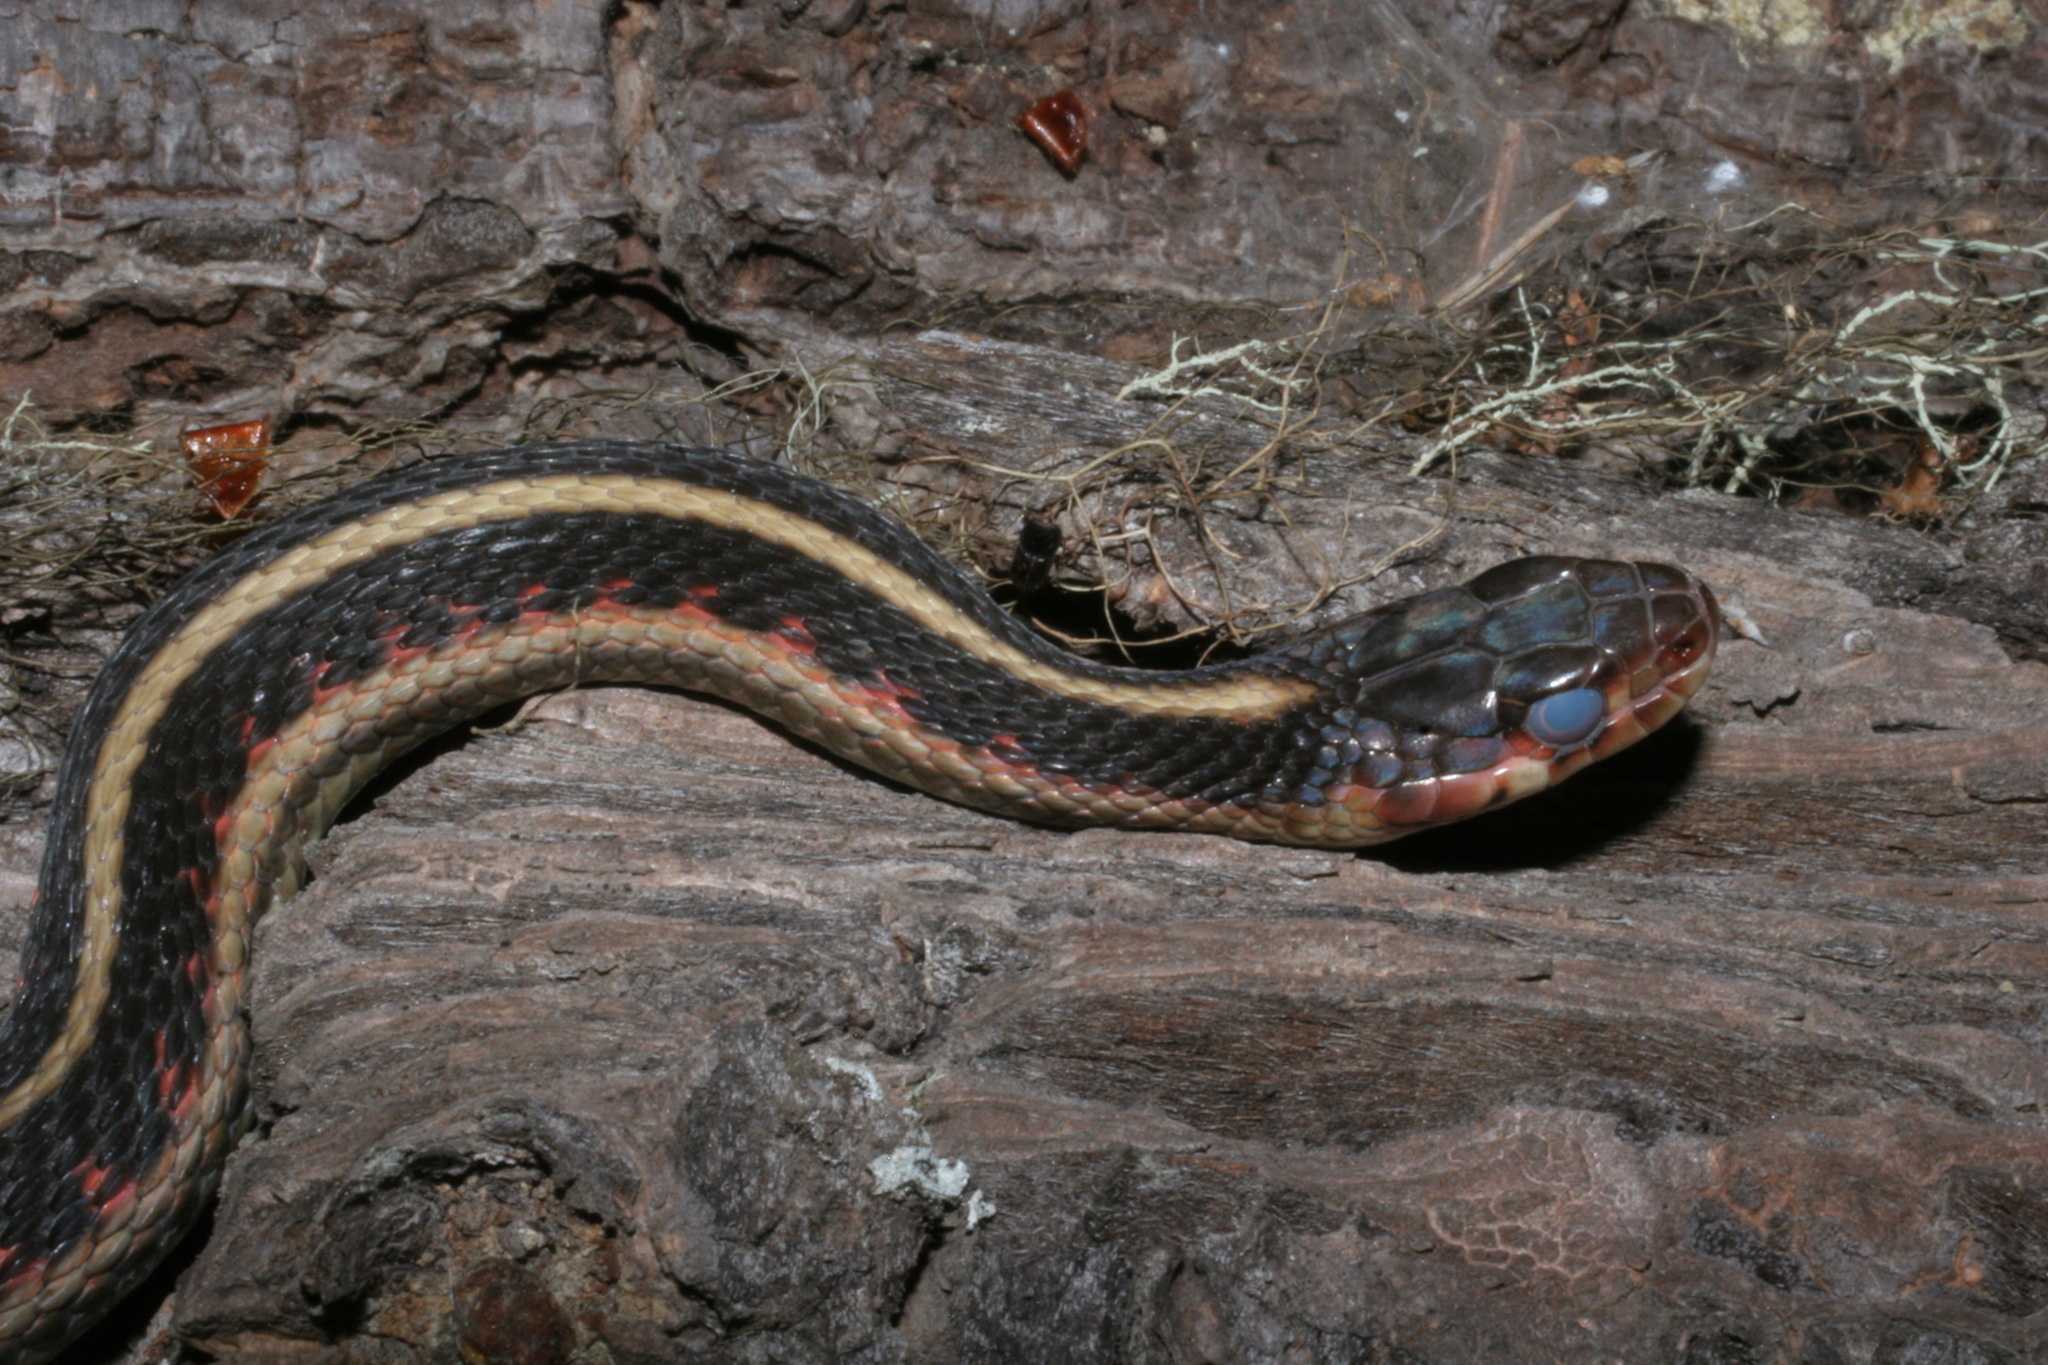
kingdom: Animalia
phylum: Chordata
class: Squamata
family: Colubridae
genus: Thamnophis
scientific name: Thamnophis sirtalis
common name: Common garter snake
